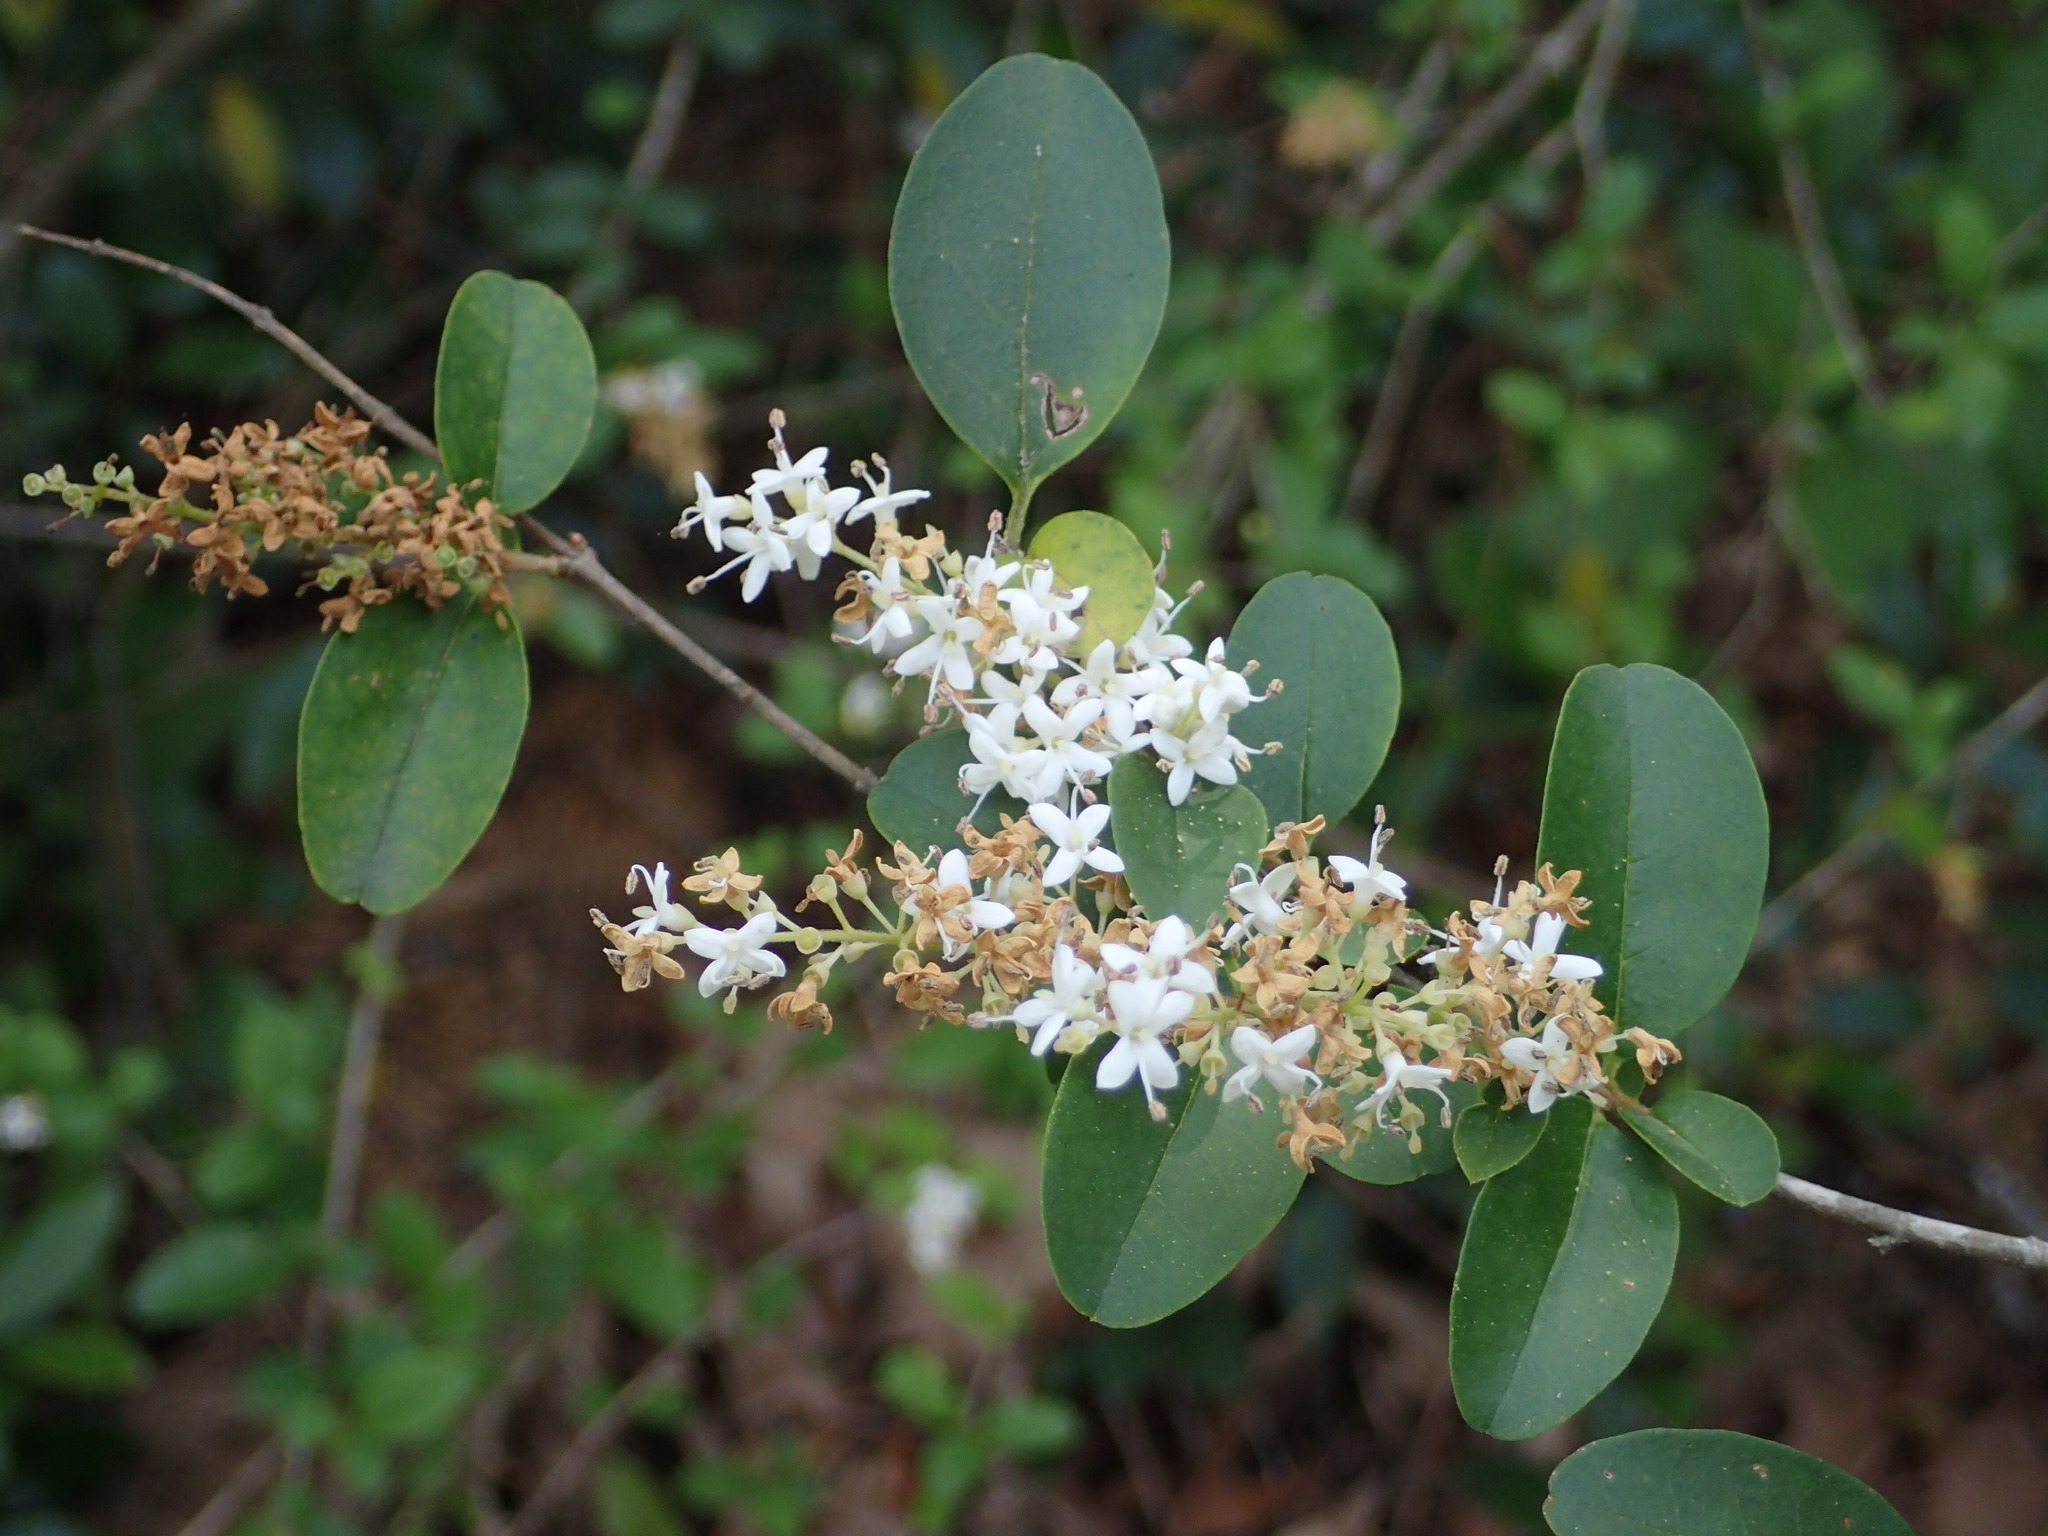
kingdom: Plantae
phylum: Tracheophyta
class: Magnoliopsida
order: Lamiales
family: Oleaceae
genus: Ligustrum
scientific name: Ligustrum sinense
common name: Chinese privet
